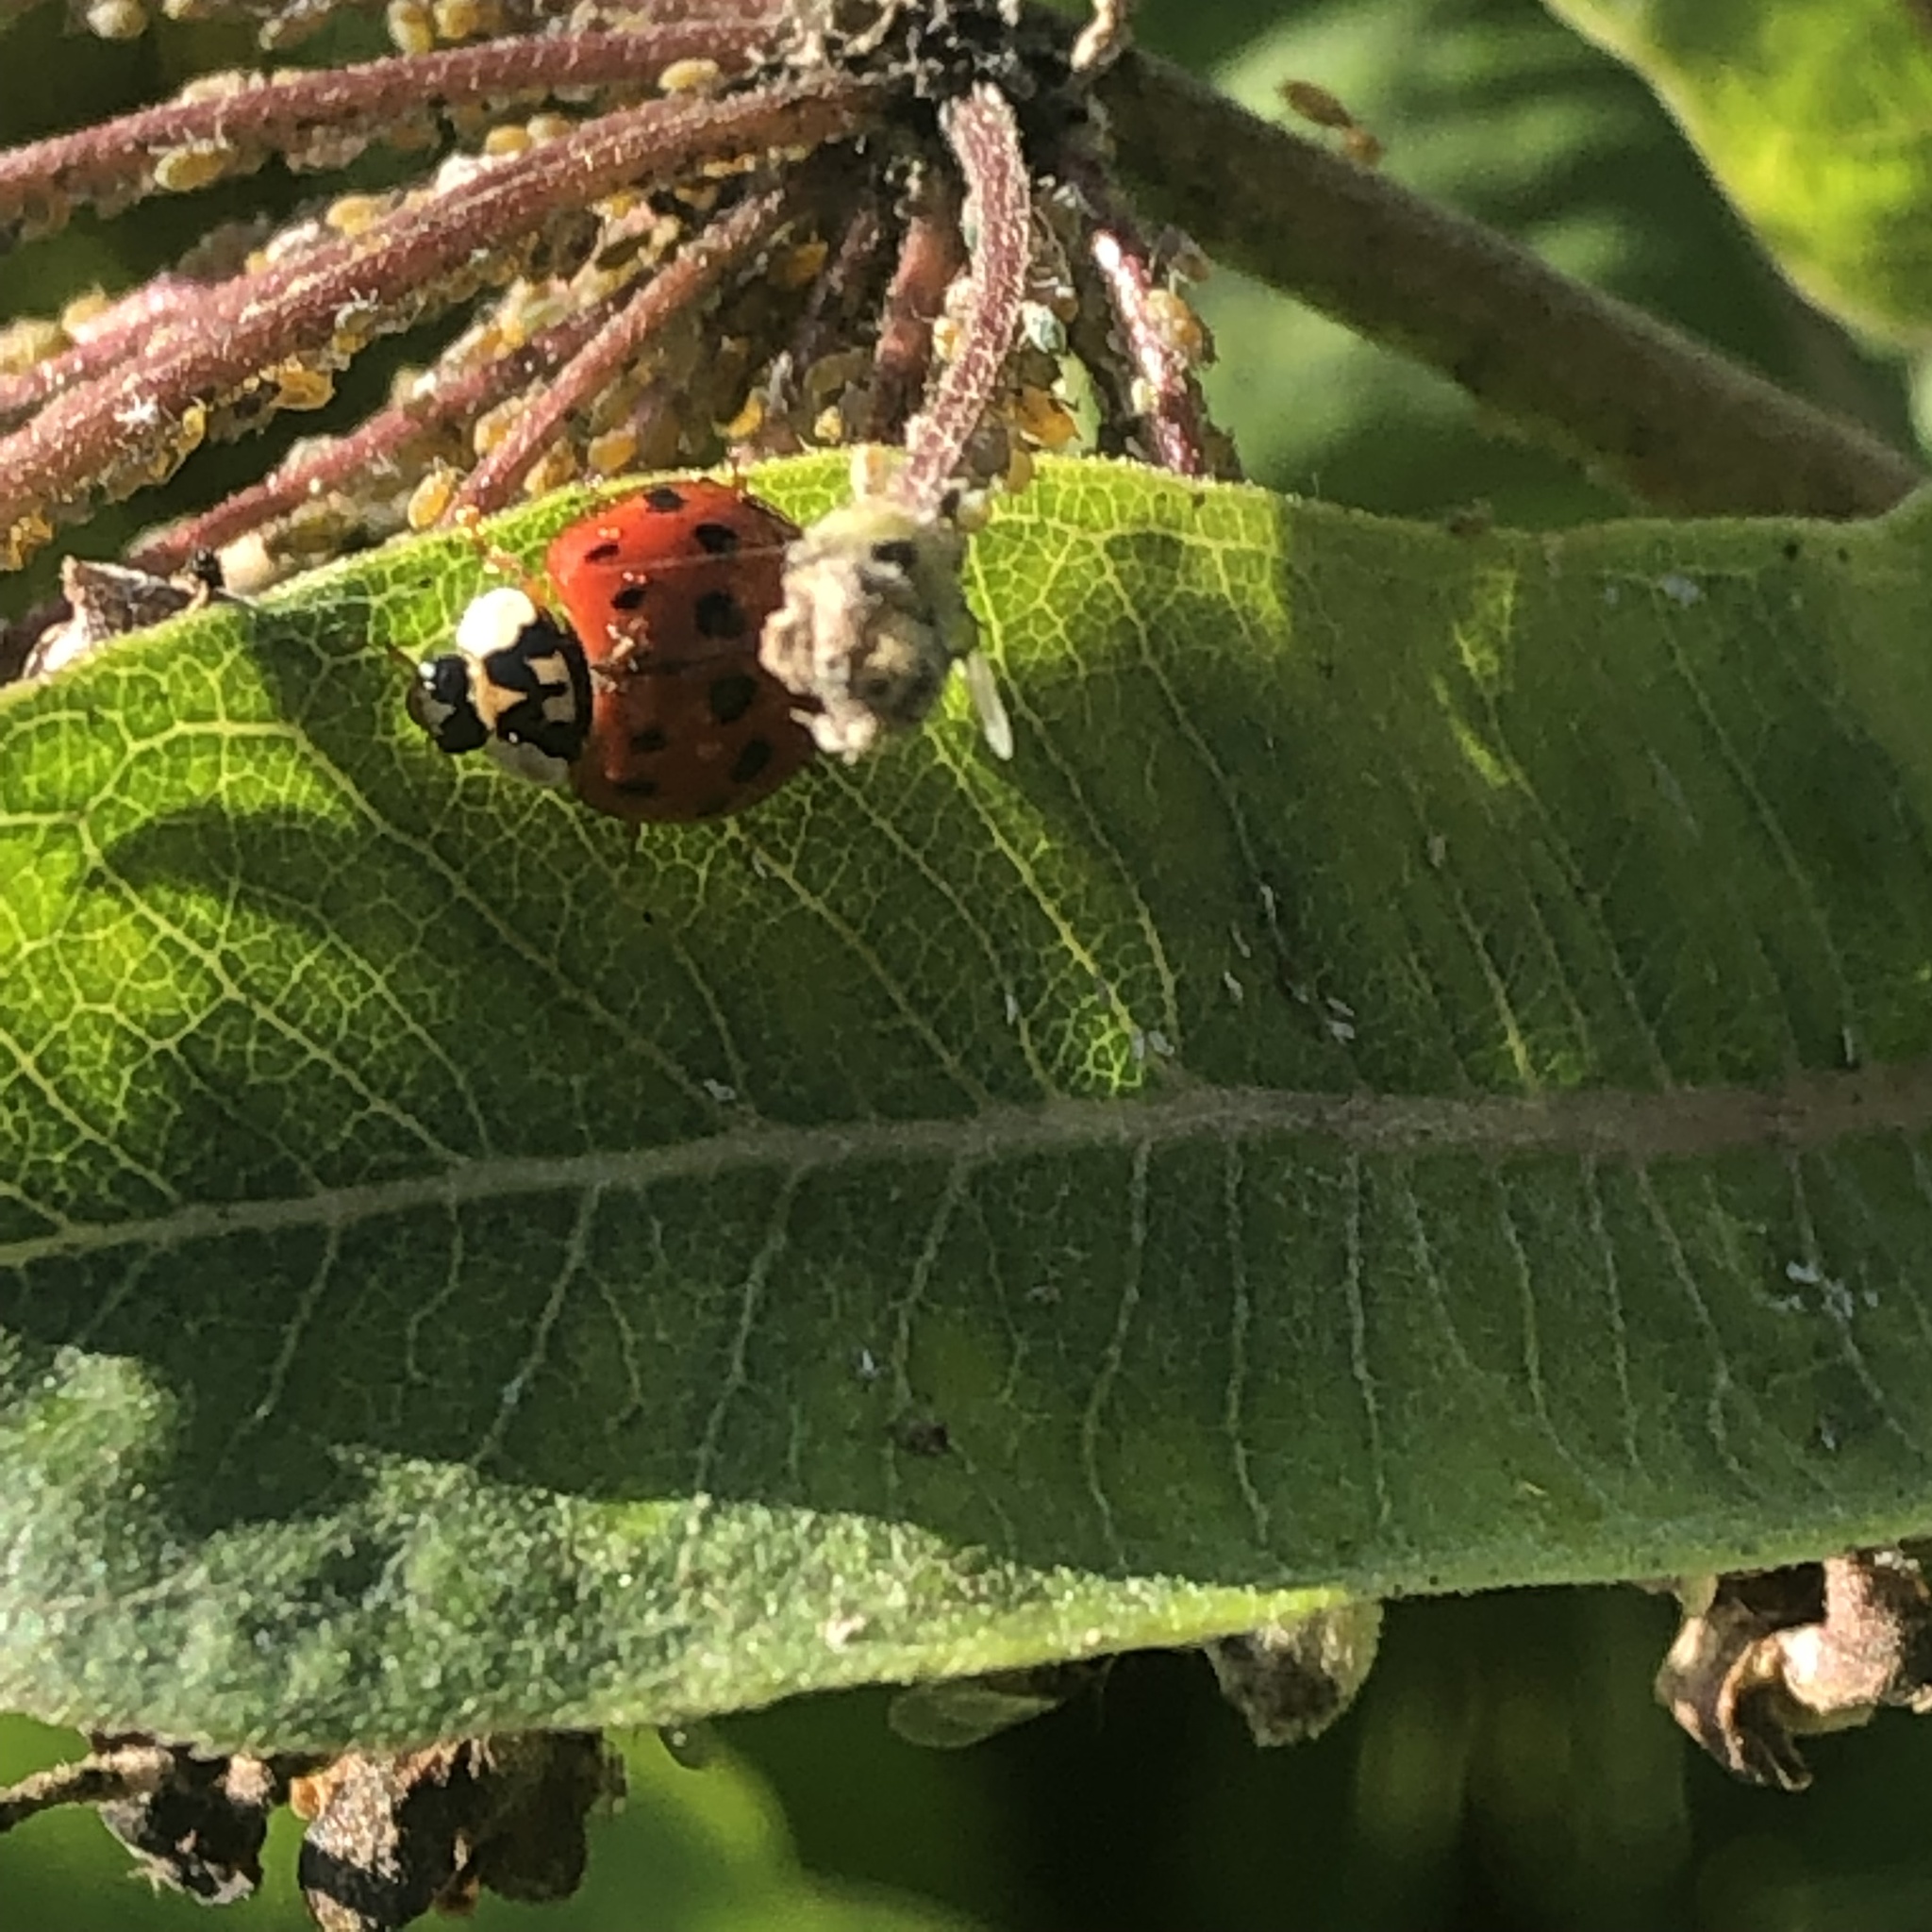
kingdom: Animalia
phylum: Arthropoda
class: Insecta
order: Coleoptera
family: Coccinellidae
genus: Harmonia
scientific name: Harmonia axyridis
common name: Harlequin ladybird
